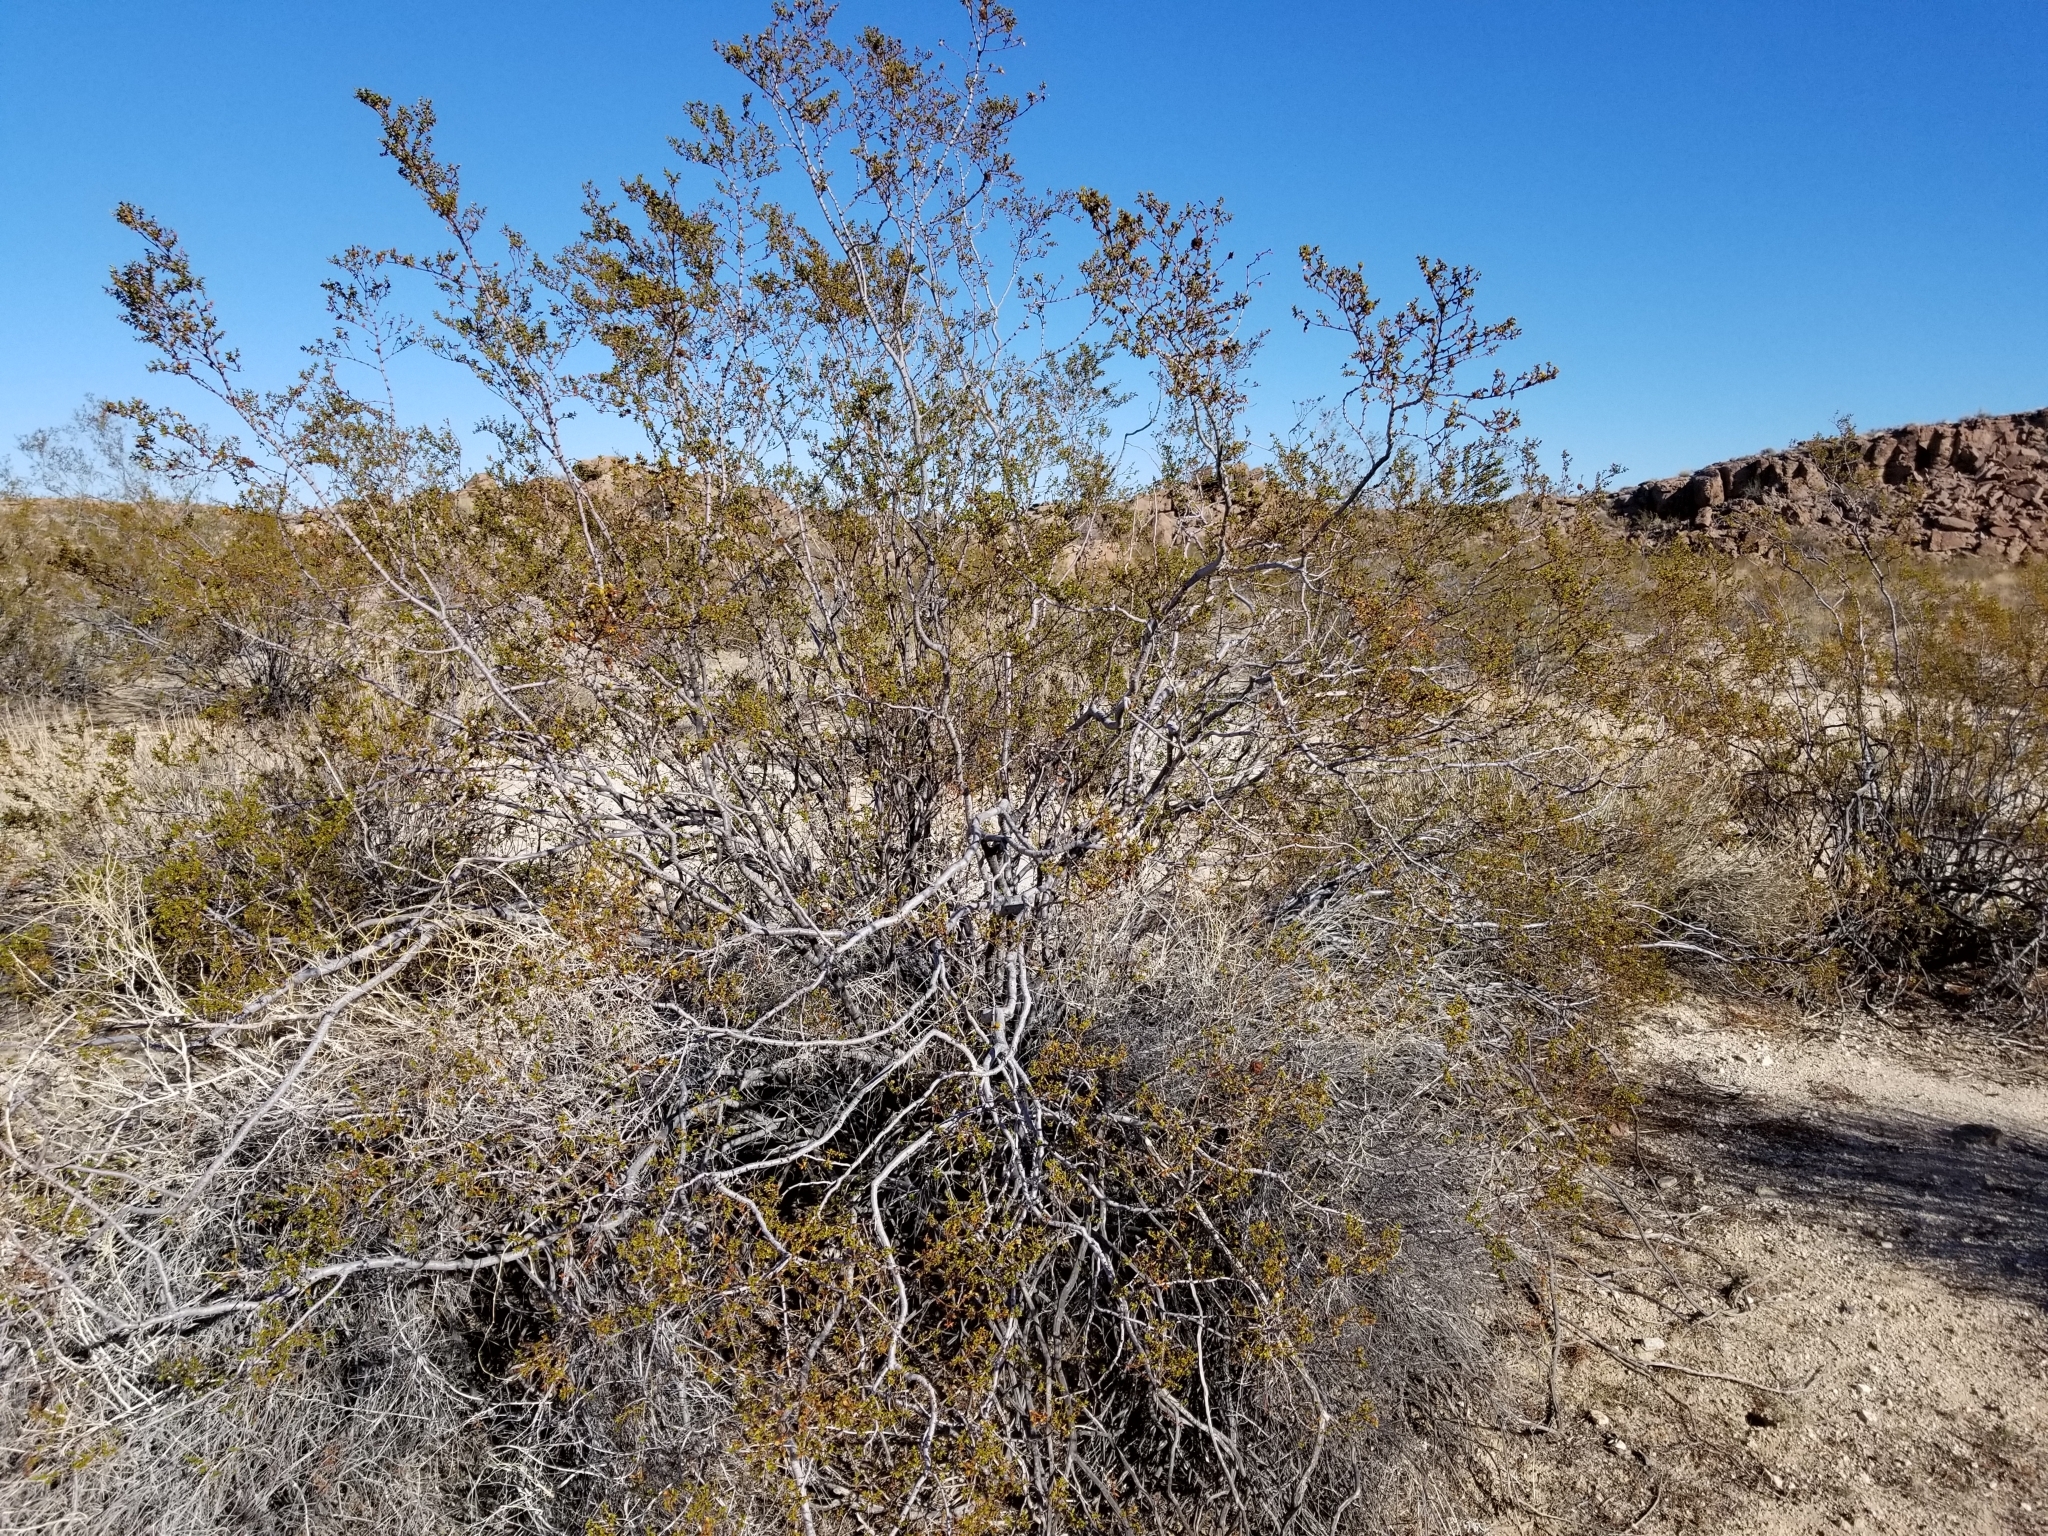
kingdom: Plantae
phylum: Tracheophyta
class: Magnoliopsida
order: Zygophyllales
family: Zygophyllaceae
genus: Larrea
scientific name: Larrea tridentata
